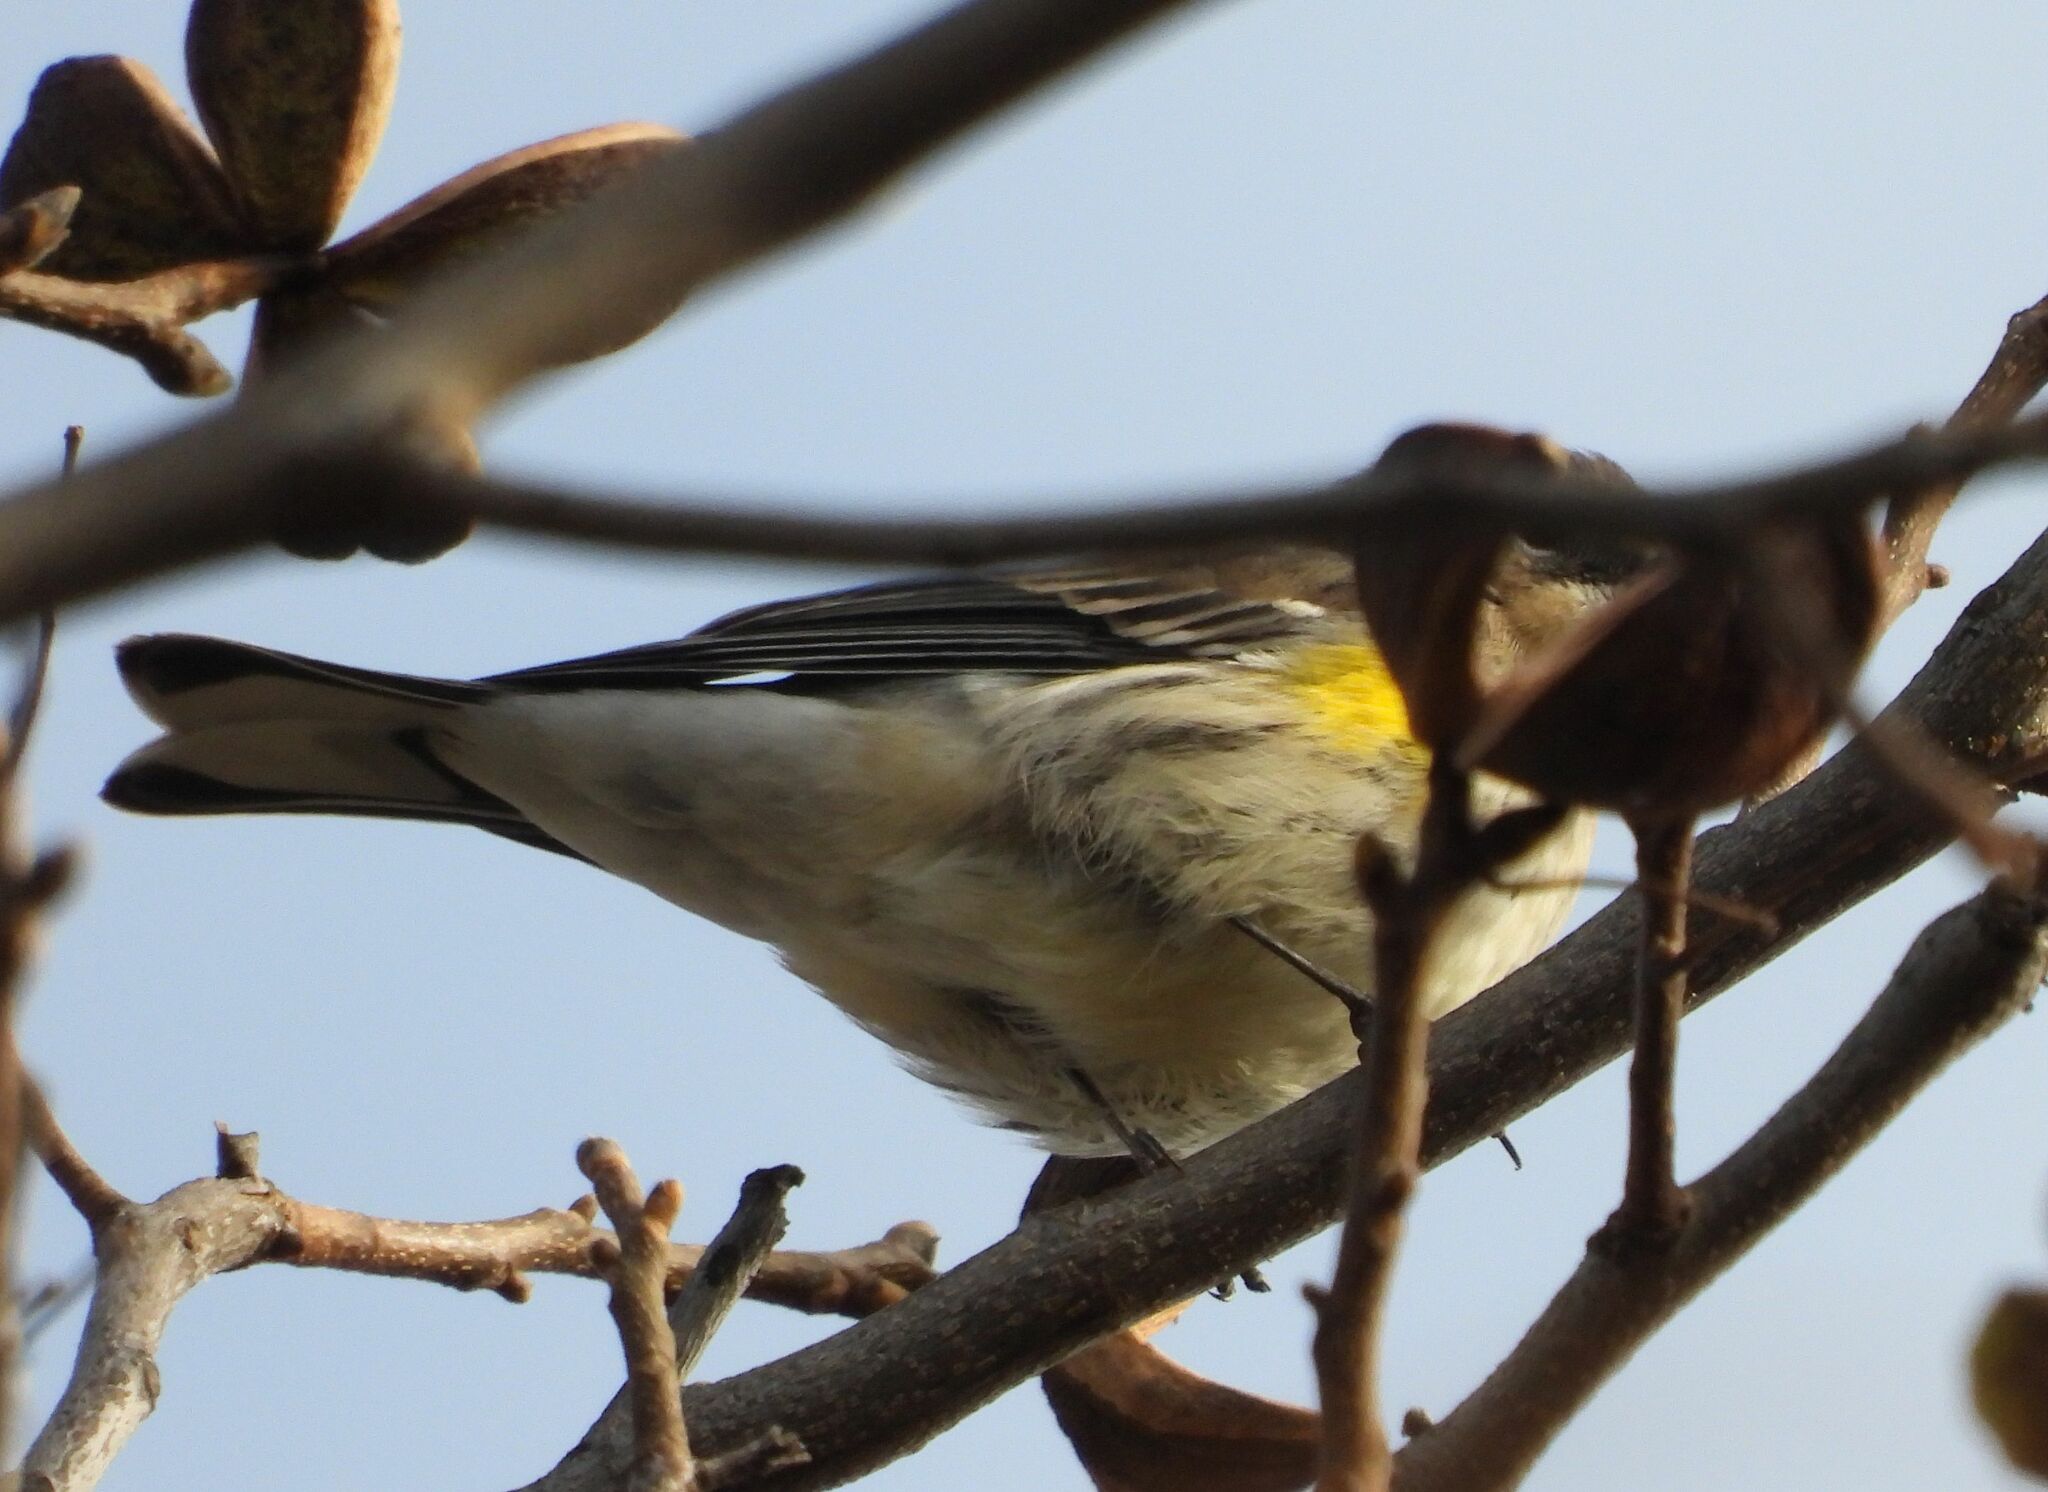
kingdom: Animalia
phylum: Chordata
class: Aves
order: Passeriformes
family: Parulidae
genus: Setophaga
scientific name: Setophaga coronata
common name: Myrtle warbler
